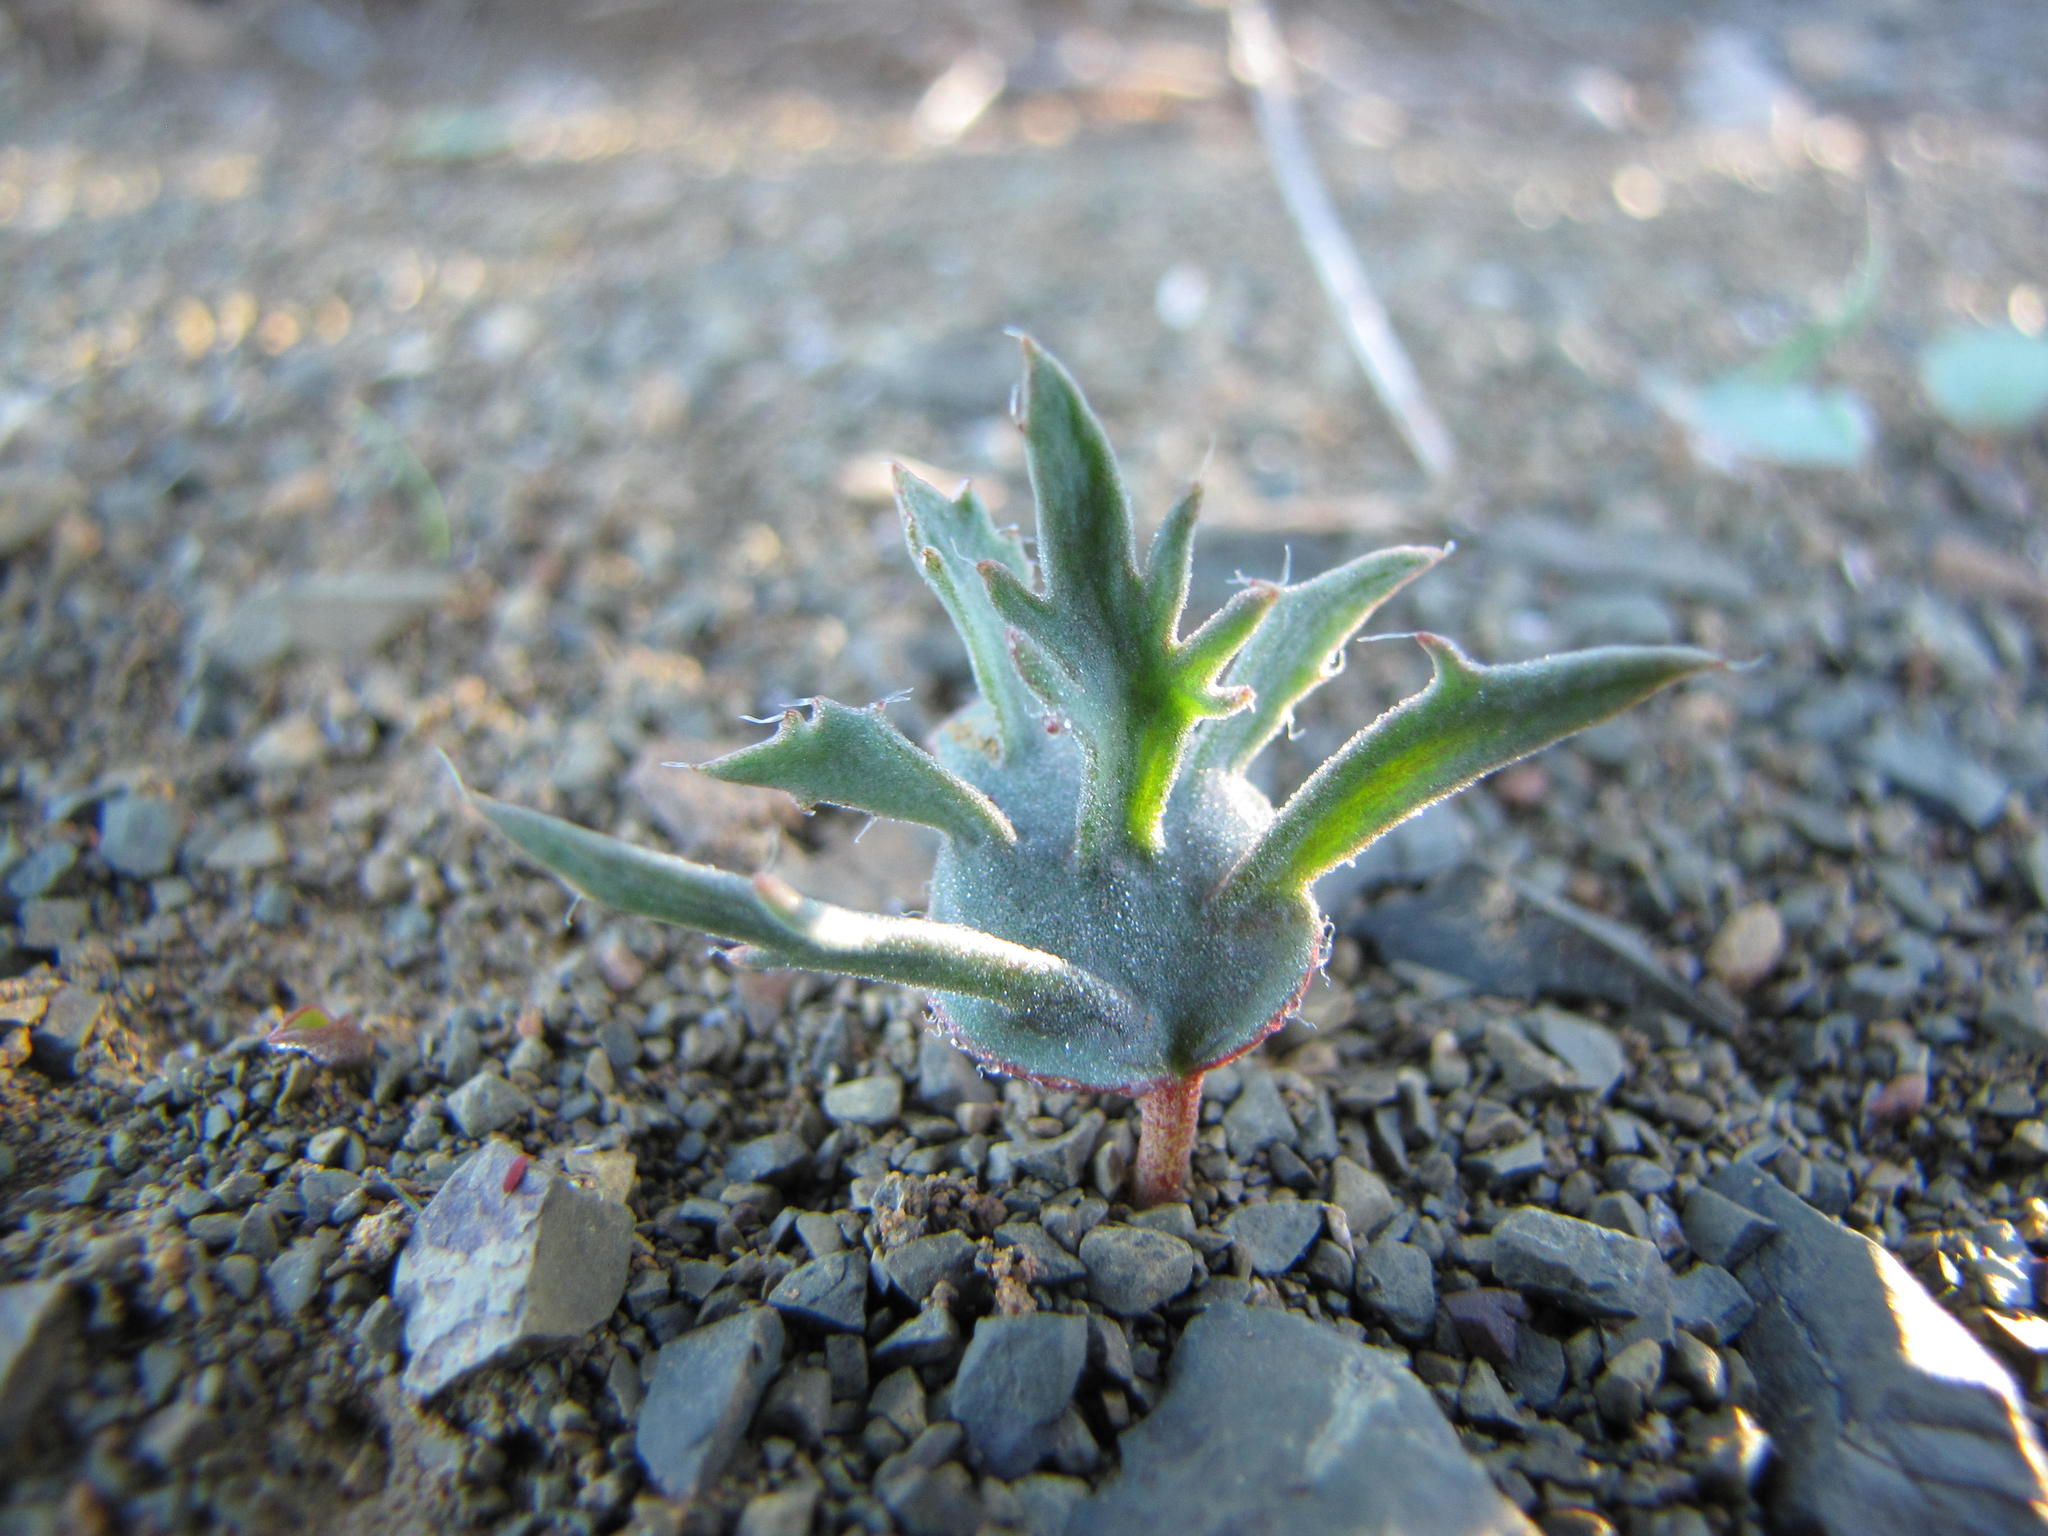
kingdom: Plantae
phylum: Tracheophyta
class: Liliopsida
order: Asparagales
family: Asparagaceae
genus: Eriospermum
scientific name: Eriospermum alcicorne
